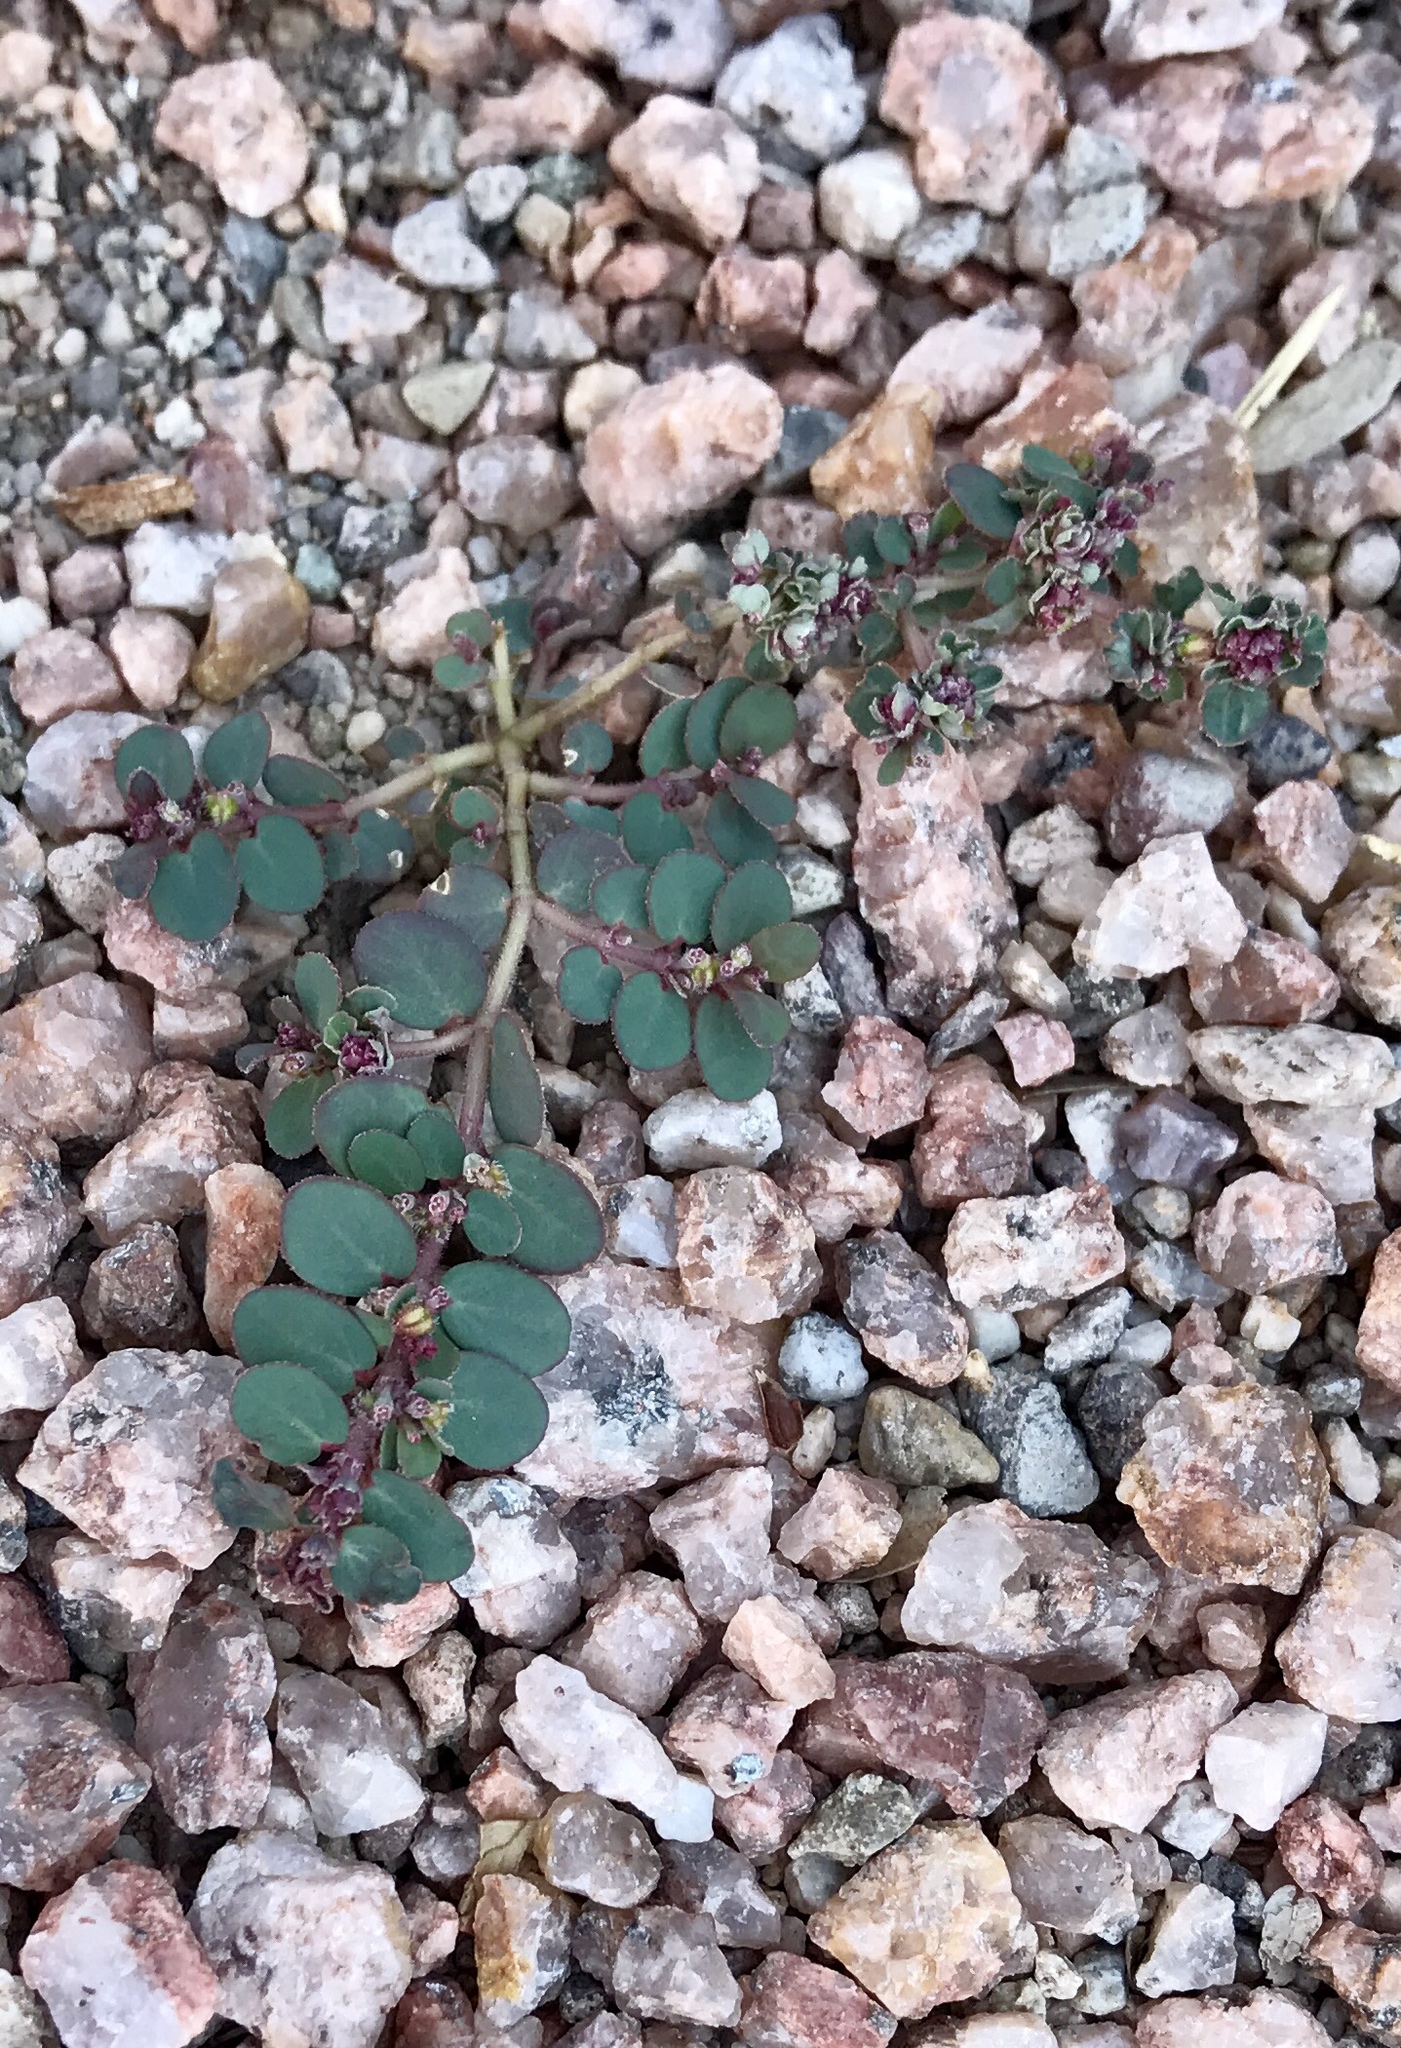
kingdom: Plantae
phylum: Tracheophyta
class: Magnoliopsida
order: Malpighiales
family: Euphorbiaceae
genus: Euphorbia
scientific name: Euphorbia prostrata
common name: Prostrate sandmat
